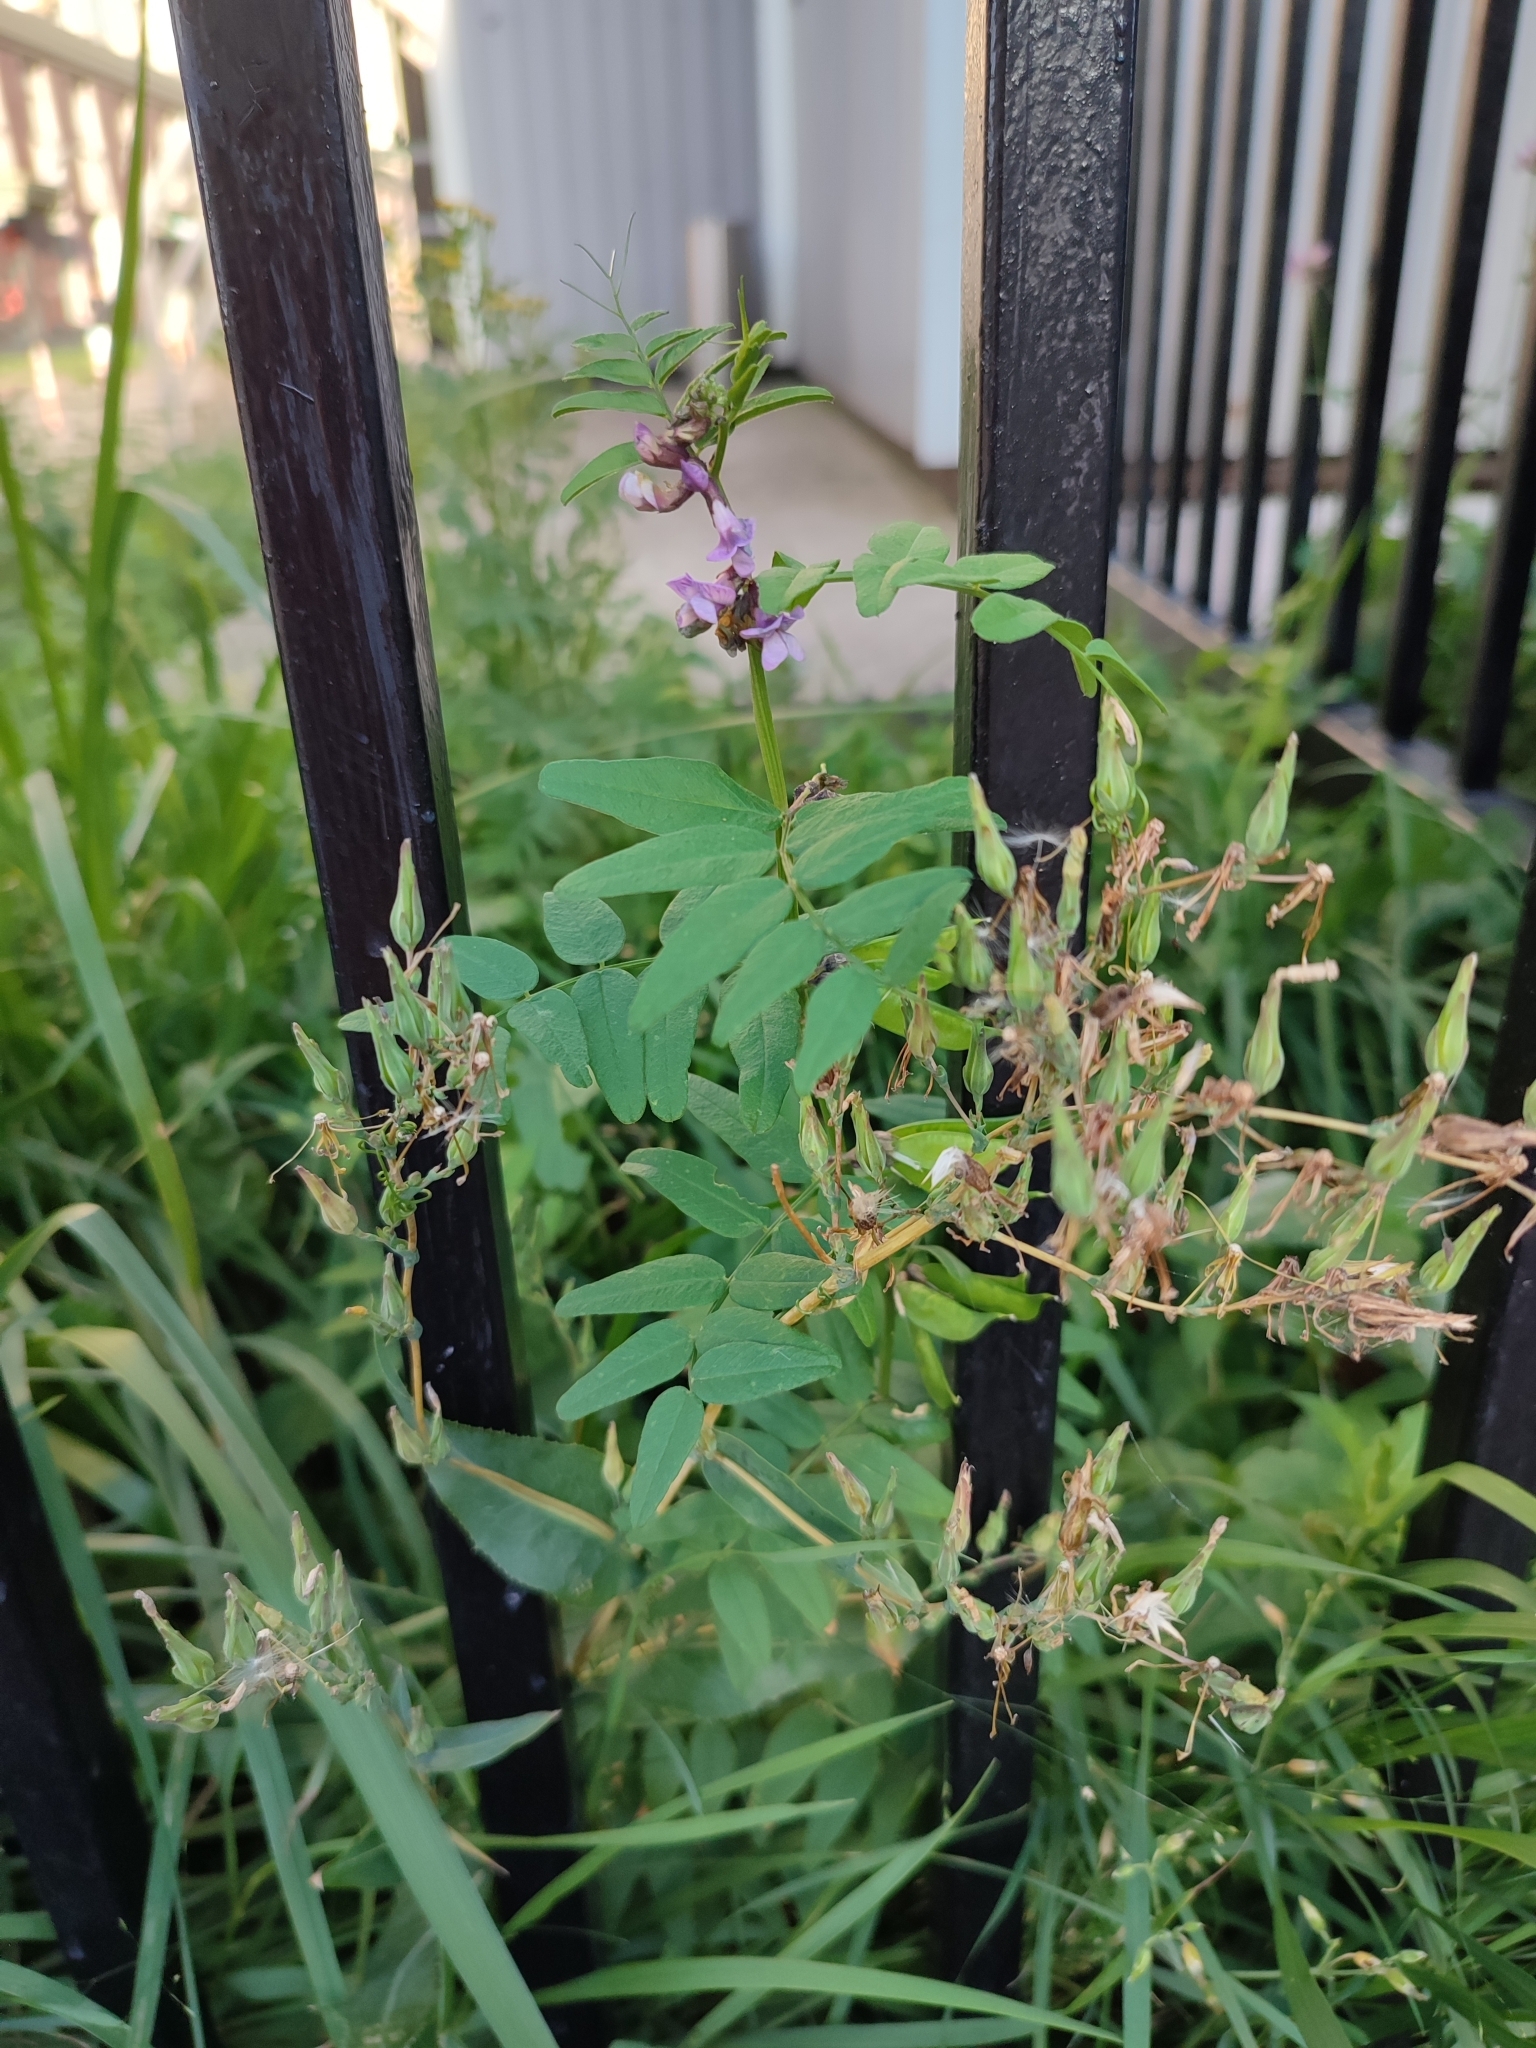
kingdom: Plantae
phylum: Tracheophyta
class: Magnoliopsida
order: Fabales
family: Fabaceae
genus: Vicia
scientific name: Vicia sepium
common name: Bush vetch
